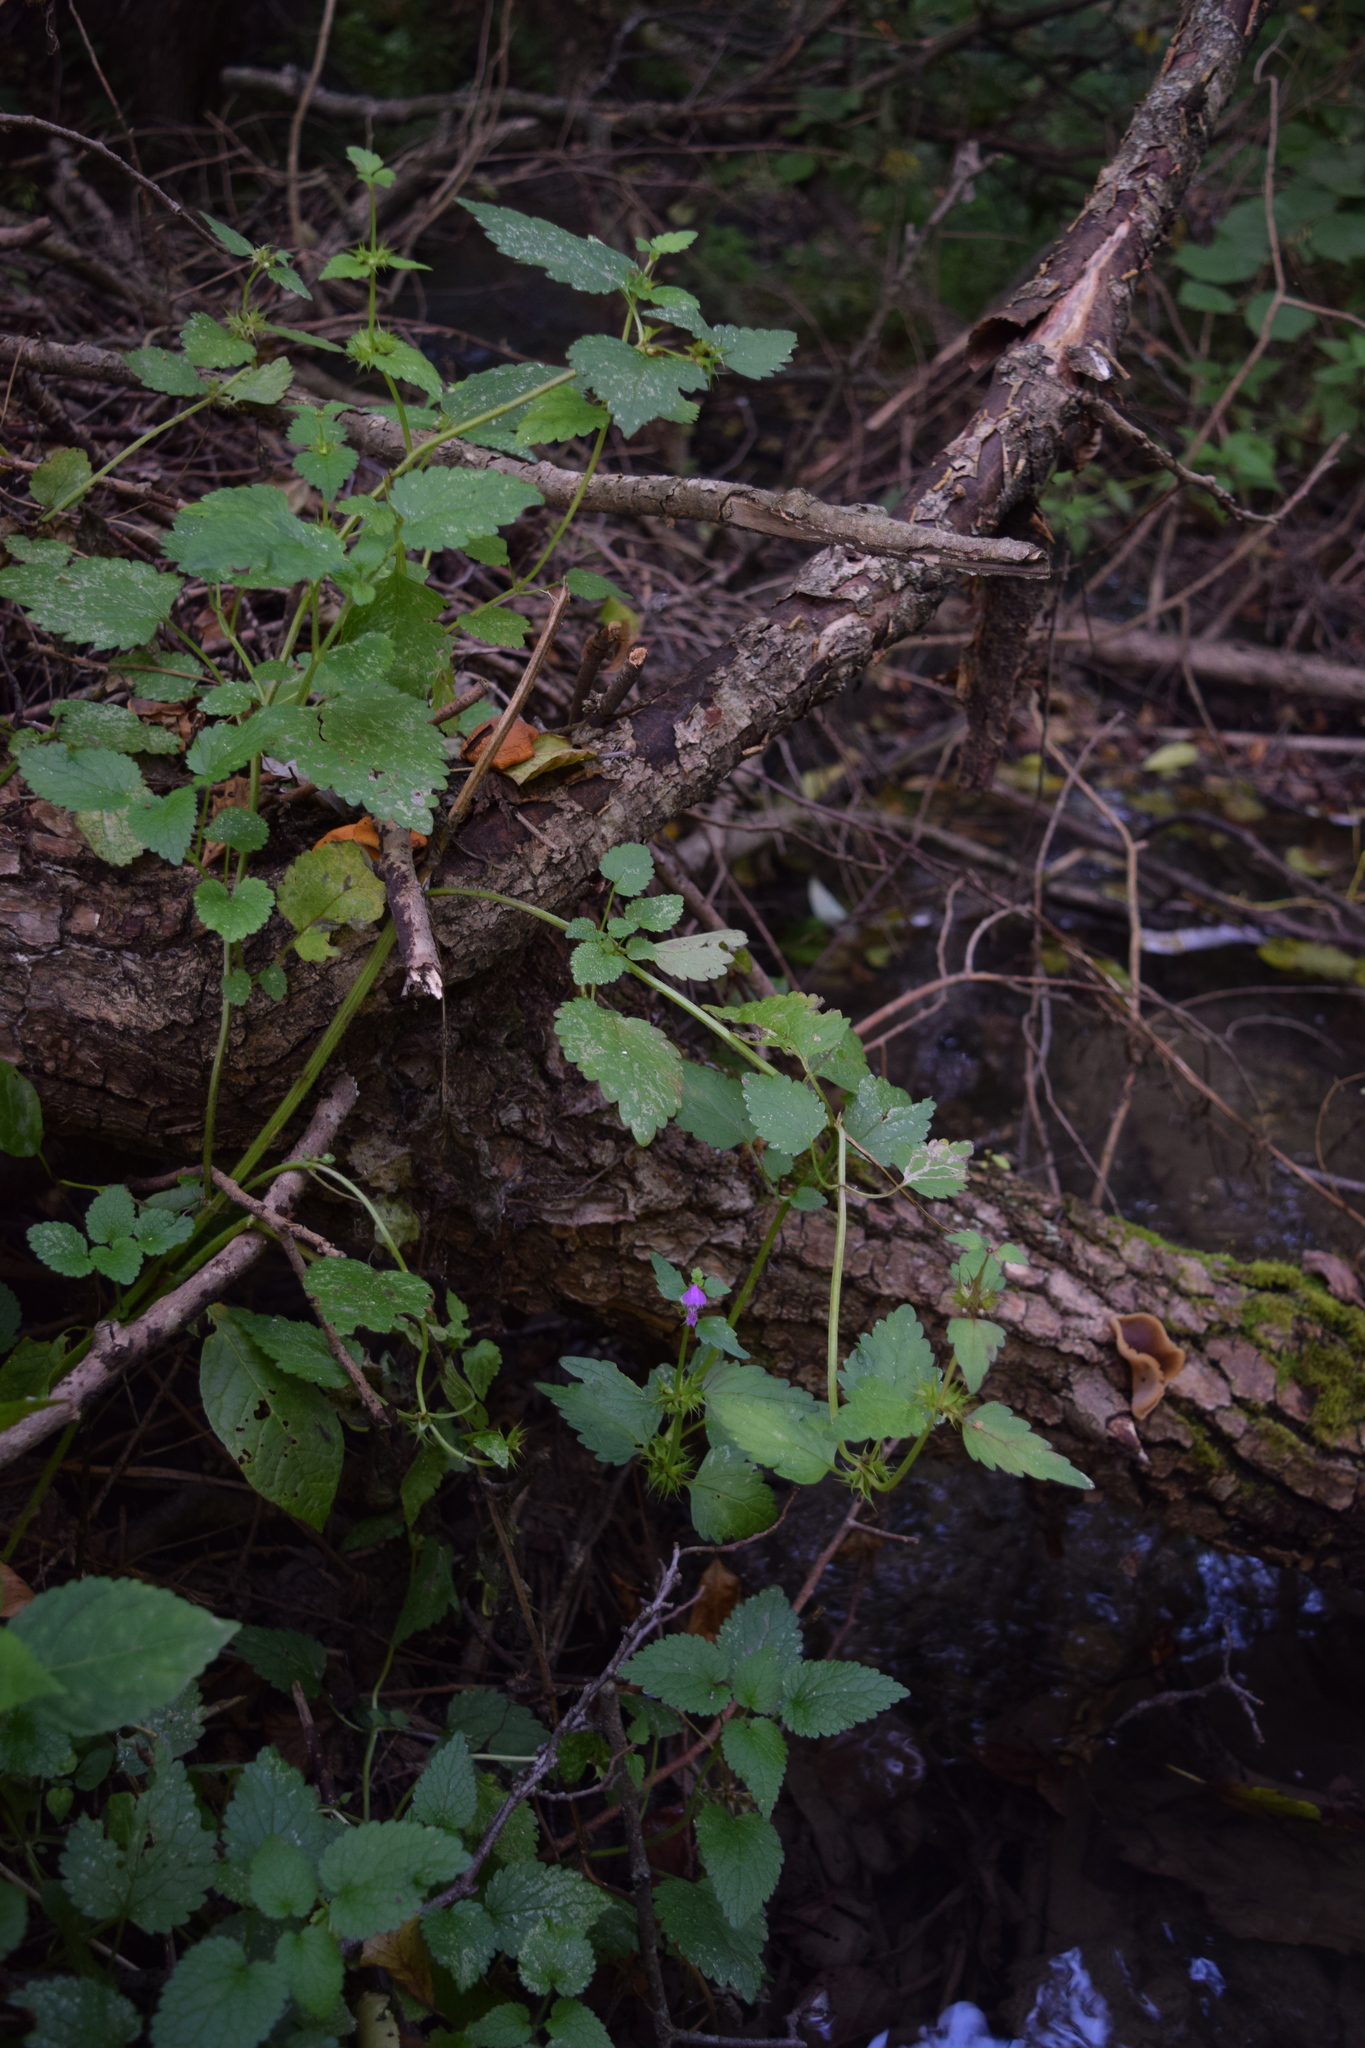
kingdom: Plantae
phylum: Tracheophyta
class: Magnoliopsida
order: Lamiales
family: Lamiaceae
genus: Lamium
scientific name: Lamium maculatum
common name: Spotted dead-nettle
